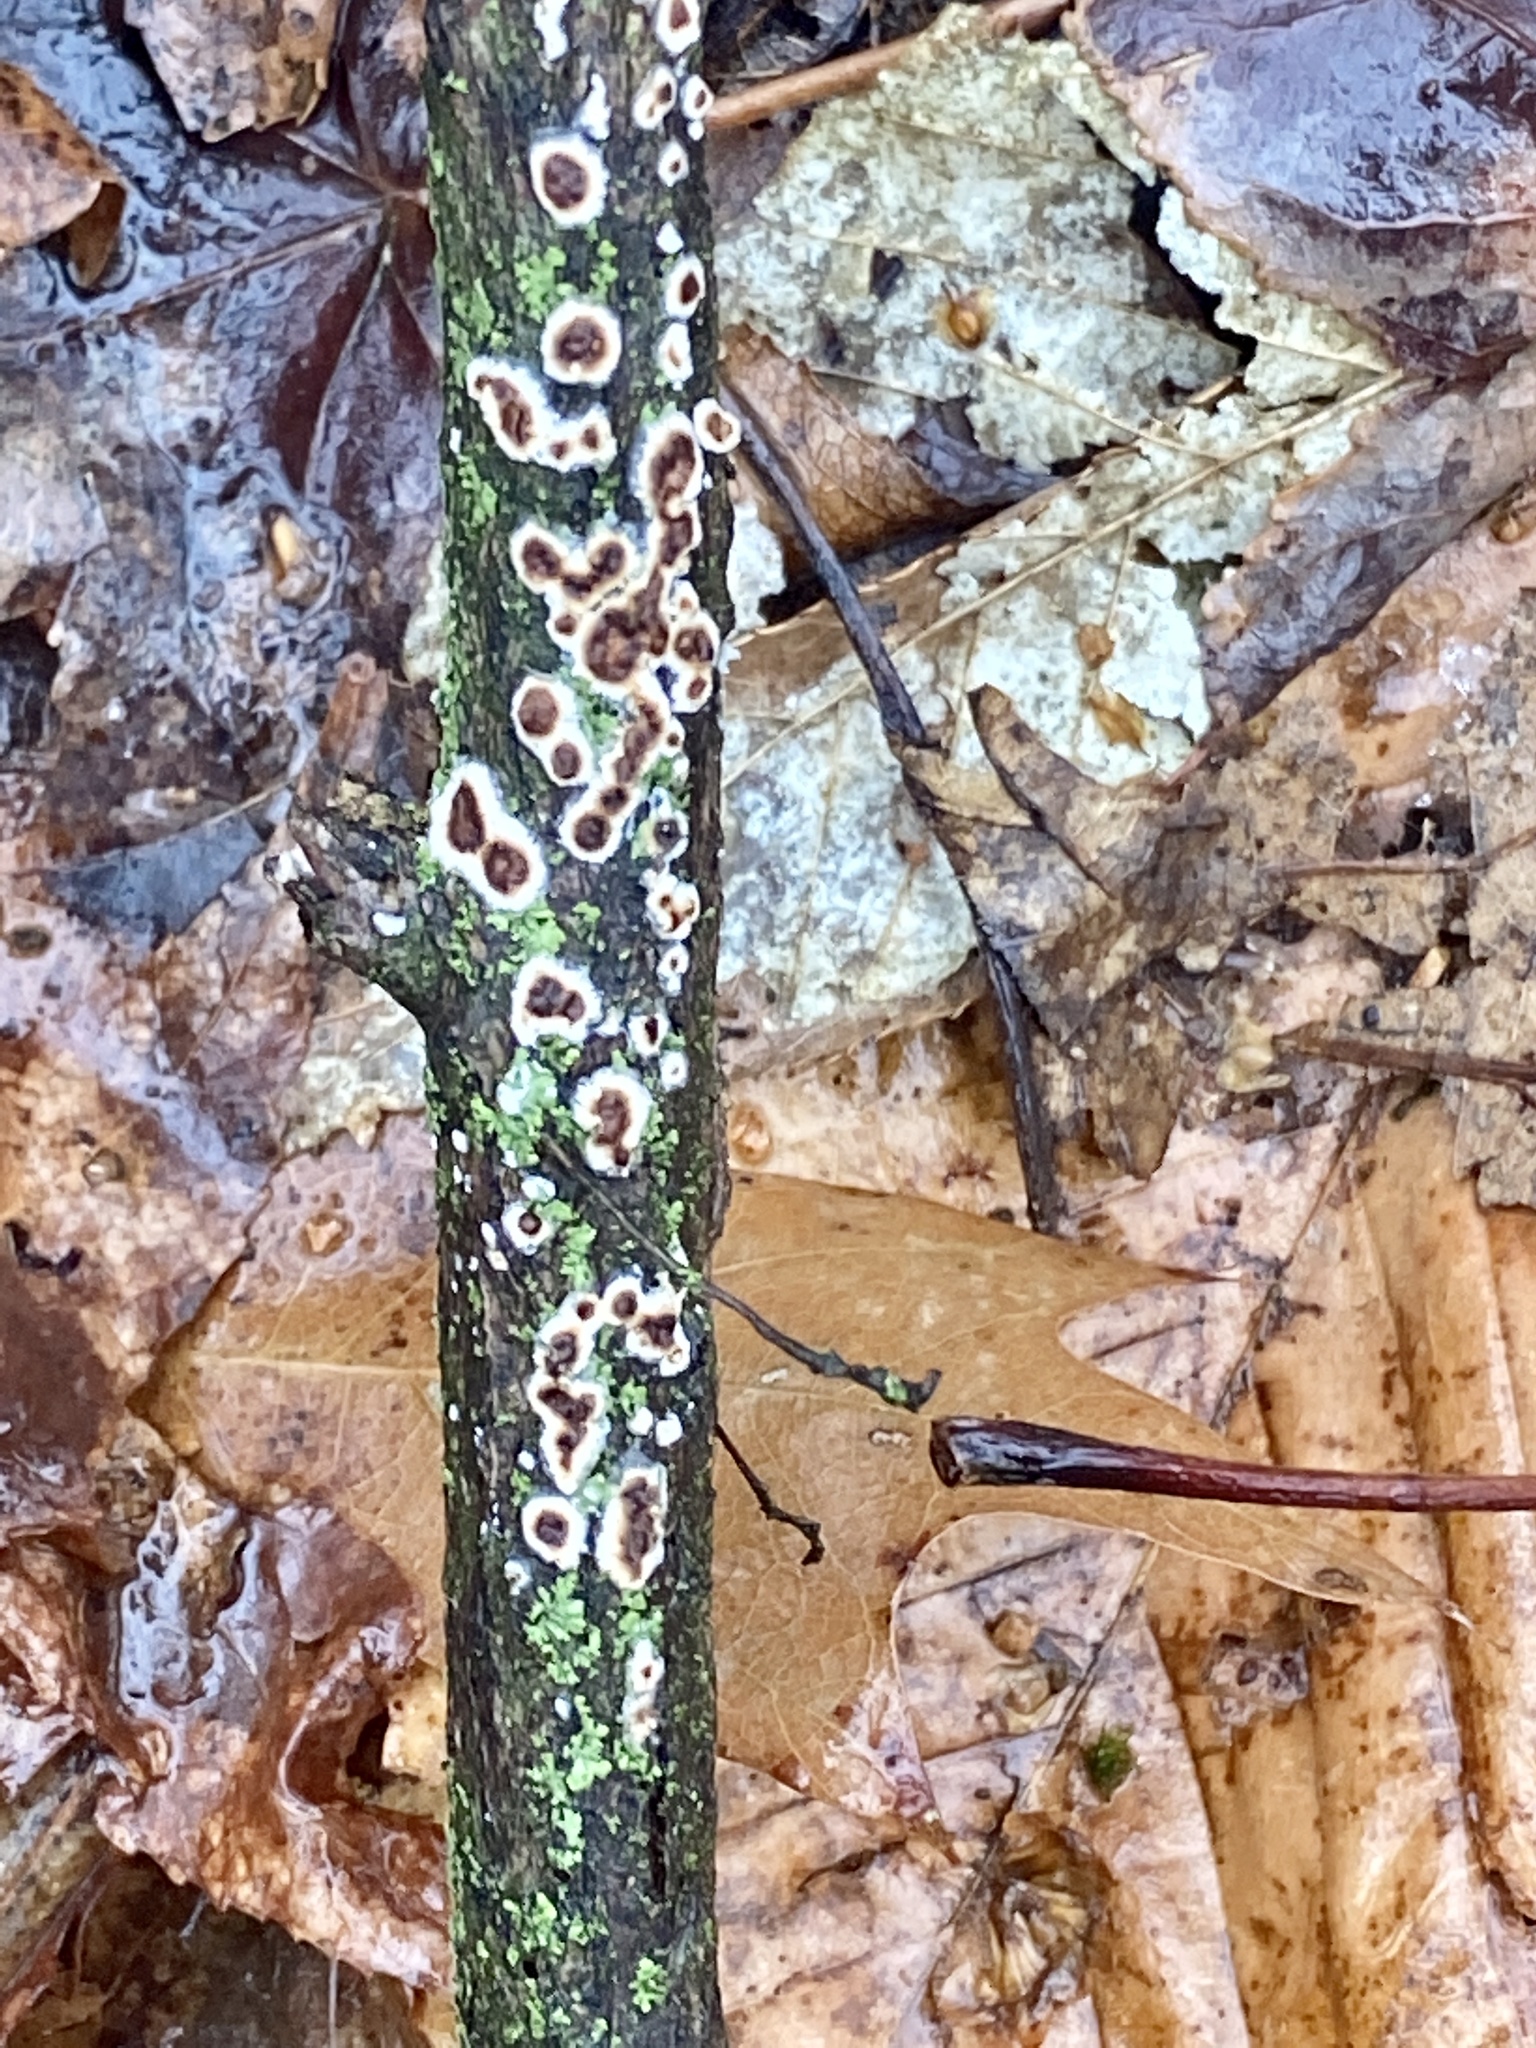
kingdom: Fungi
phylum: Basidiomycota
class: Agaricomycetes
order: Russulales
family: Peniophoraceae
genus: Peniophora
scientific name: Peniophora albobadia
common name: Giraffe spots
